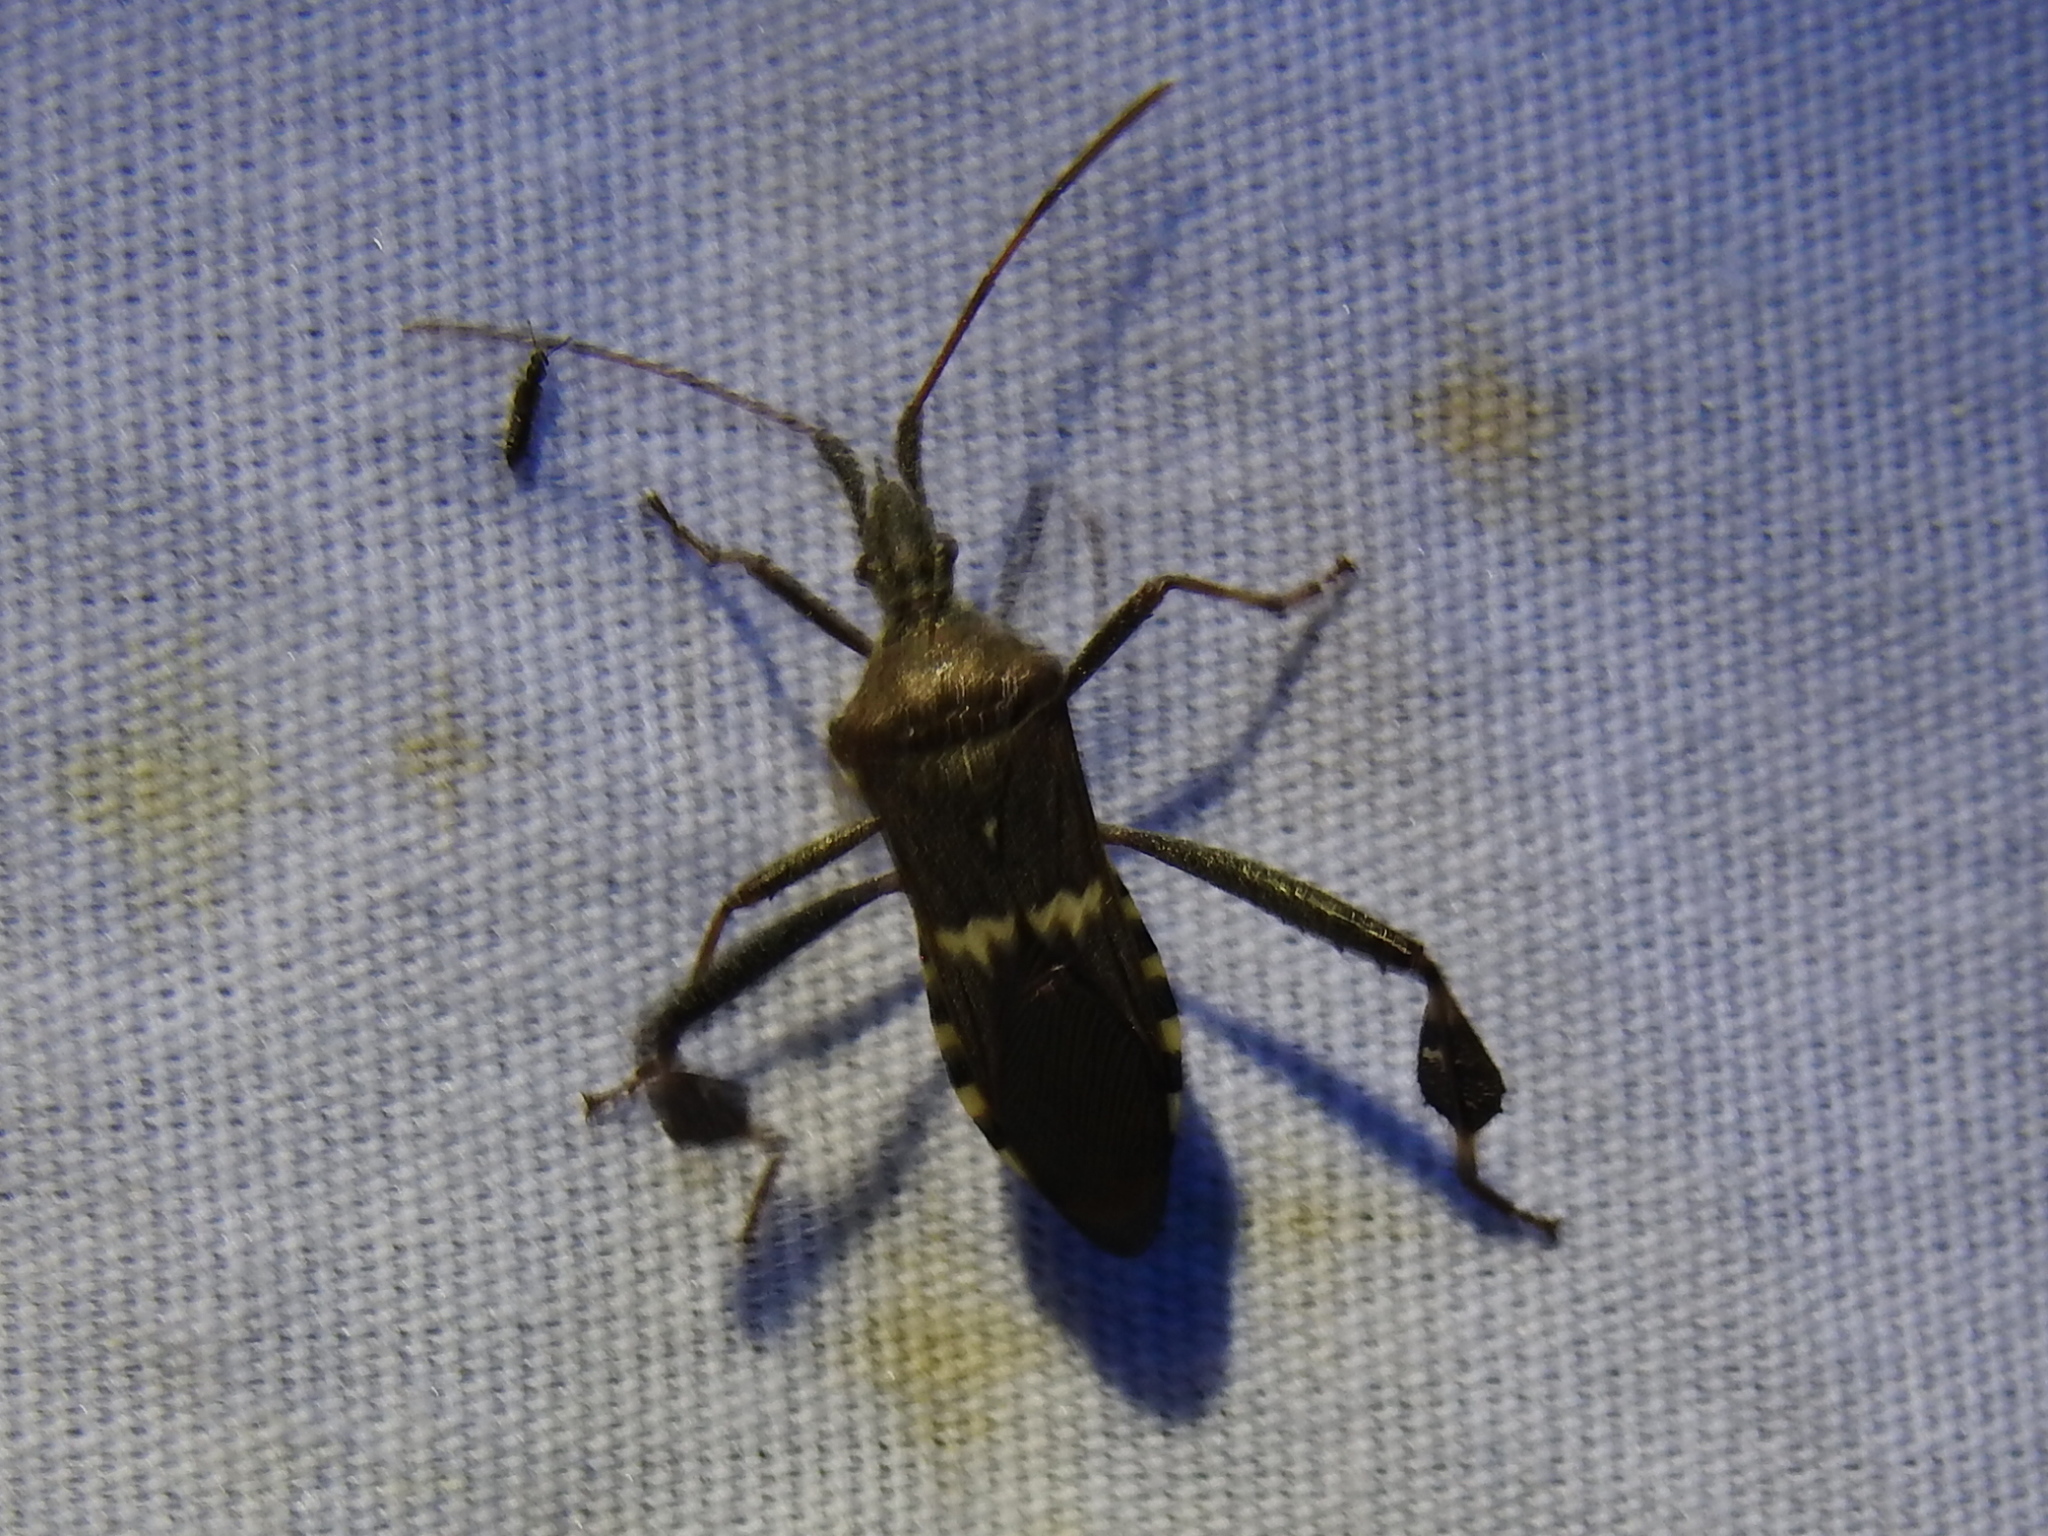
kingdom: Animalia
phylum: Arthropoda
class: Insecta
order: Hemiptera
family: Coreidae
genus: Leptoglossus
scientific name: Leptoglossus clypealis
